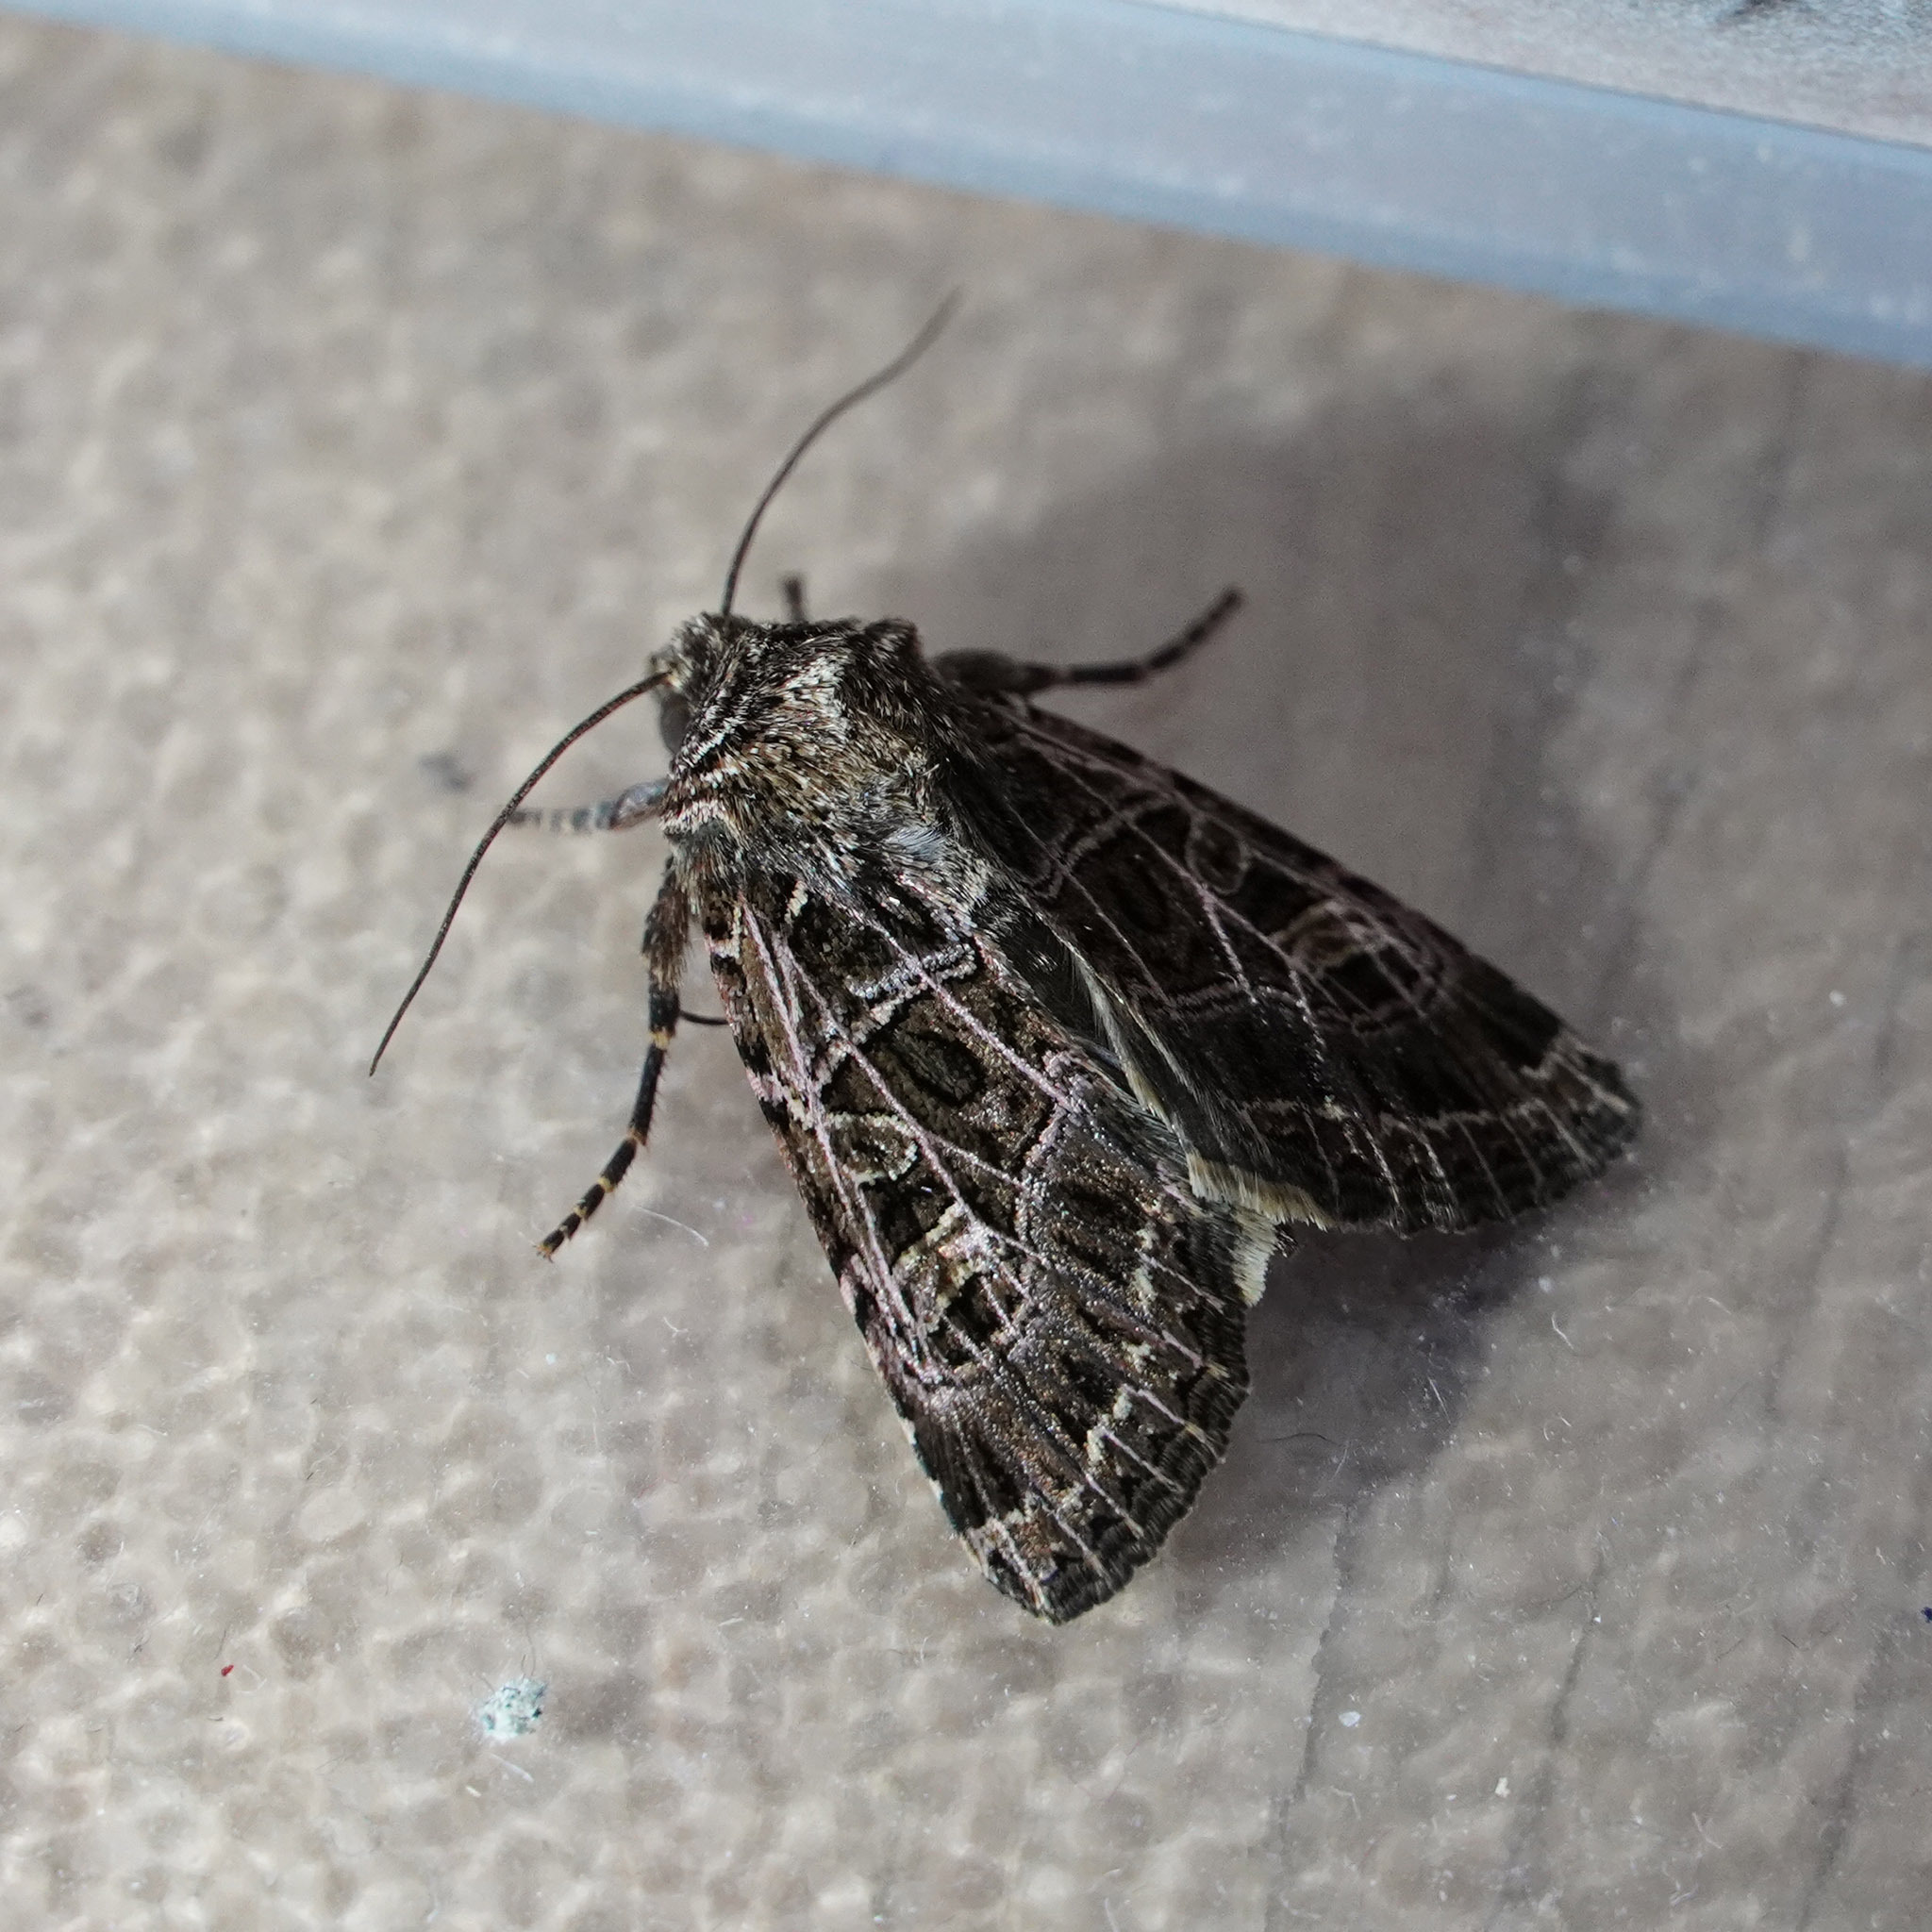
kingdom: Animalia
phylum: Arthropoda
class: Insecta
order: Lepidoptera
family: Noctuidae
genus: Sideridis
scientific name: Sideridis reticulata
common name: Bordered gothic
